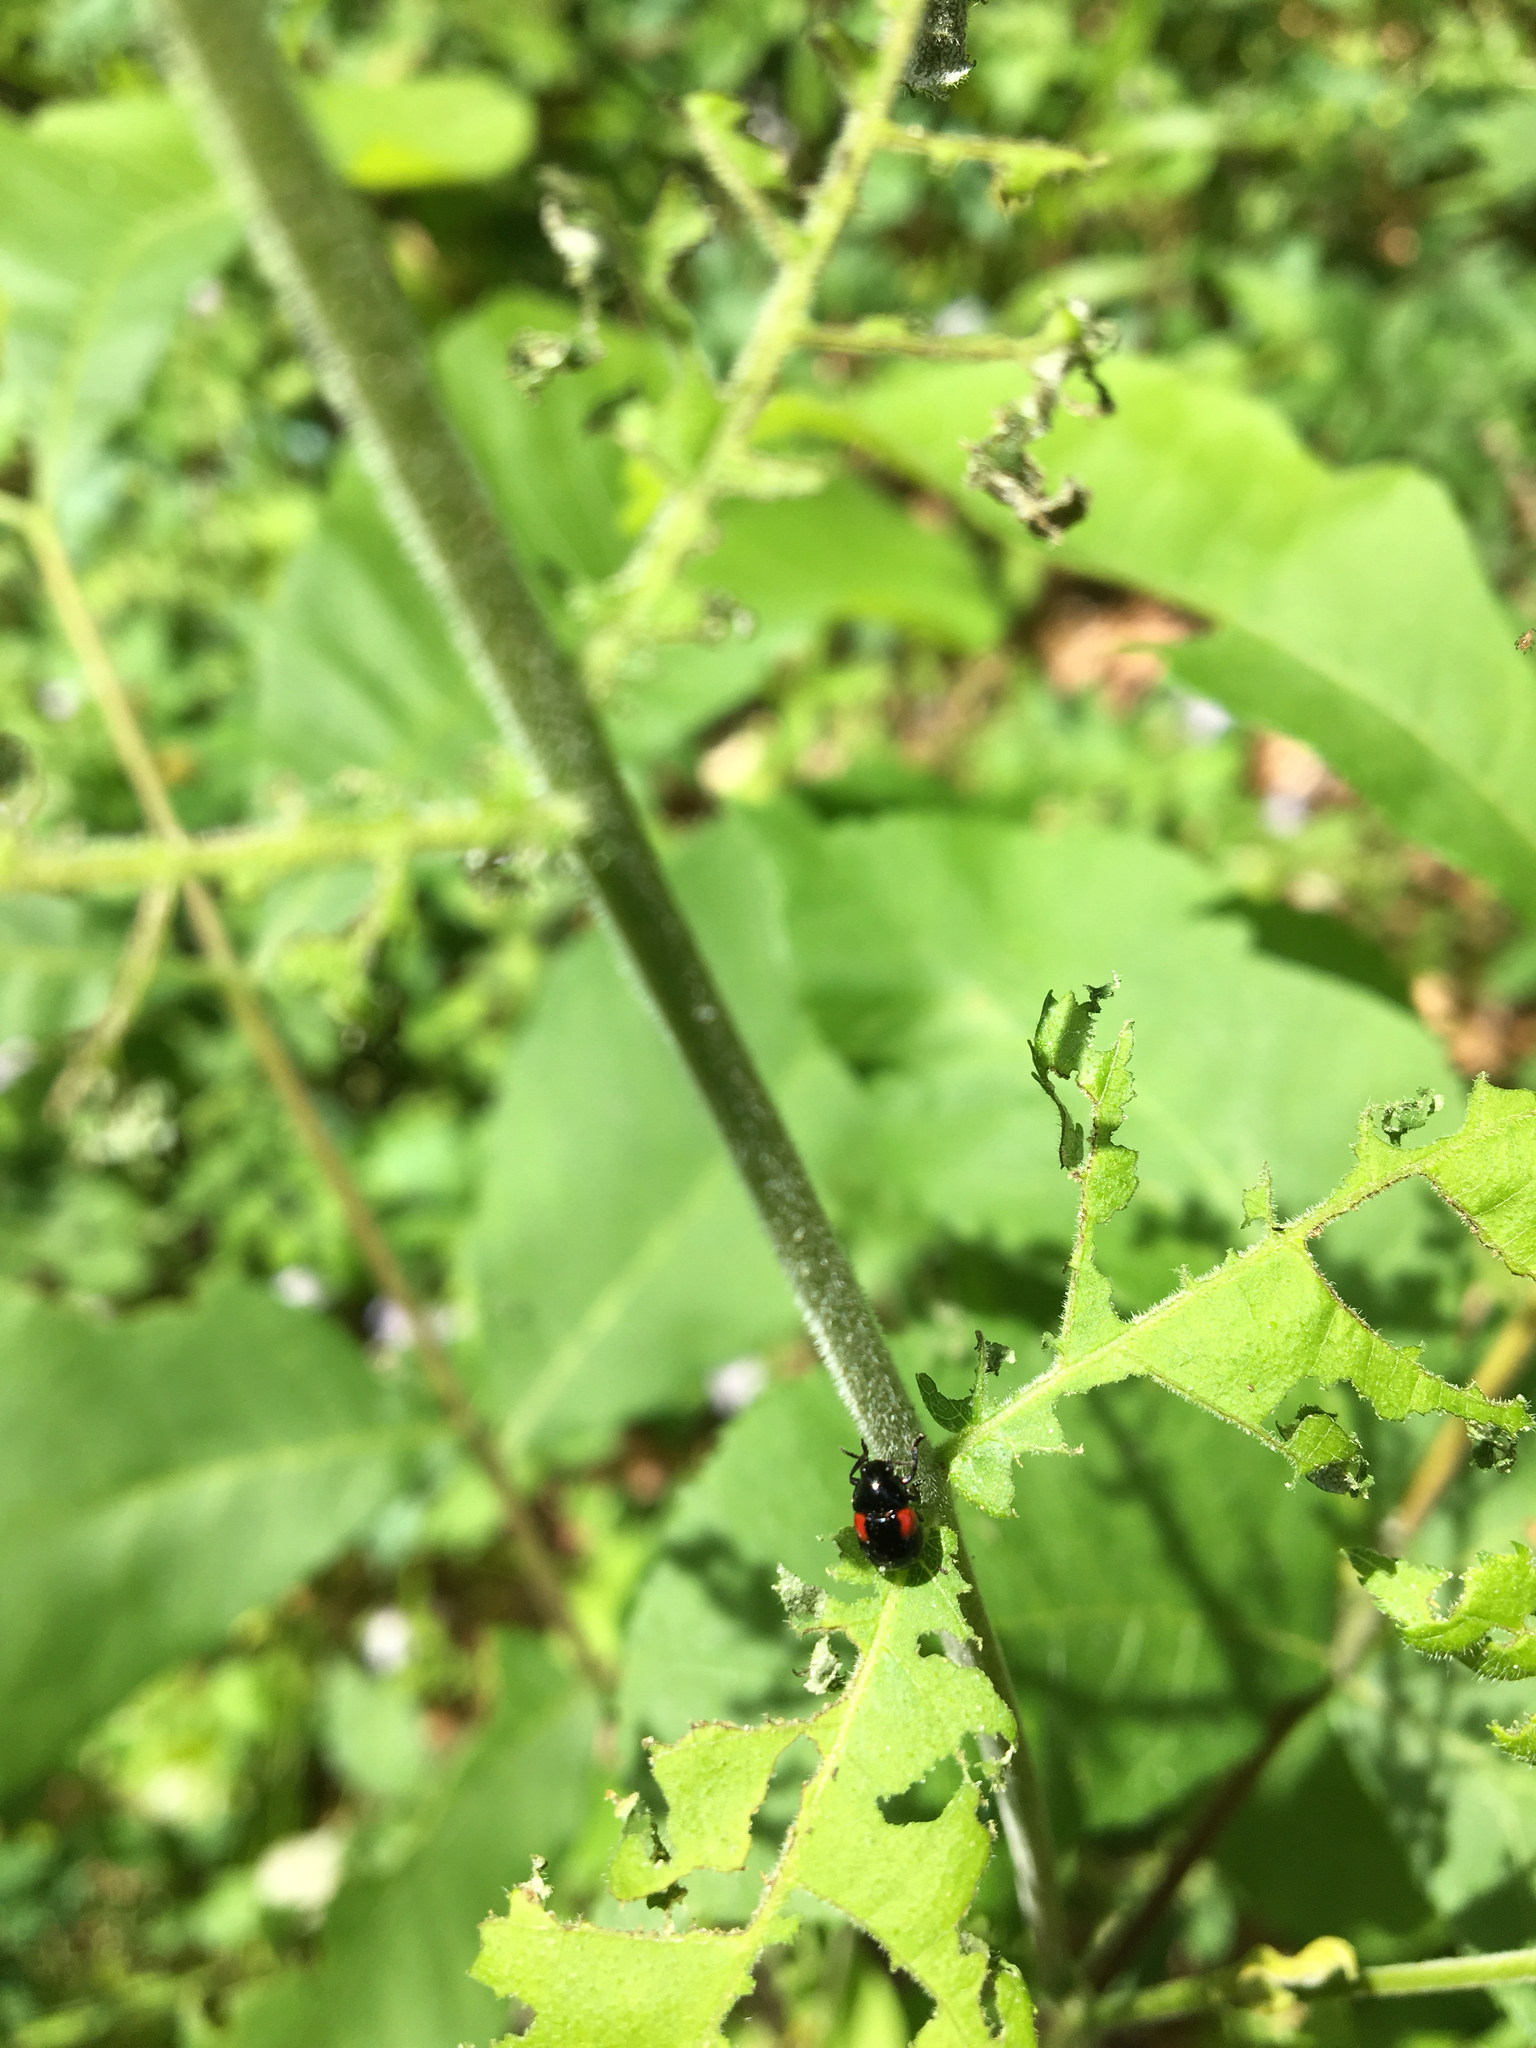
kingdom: Animalia
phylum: Arthropoda
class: Insecta
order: Coleoptera
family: Chrysomelidae
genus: Babia
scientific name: Babia quadriguttata
